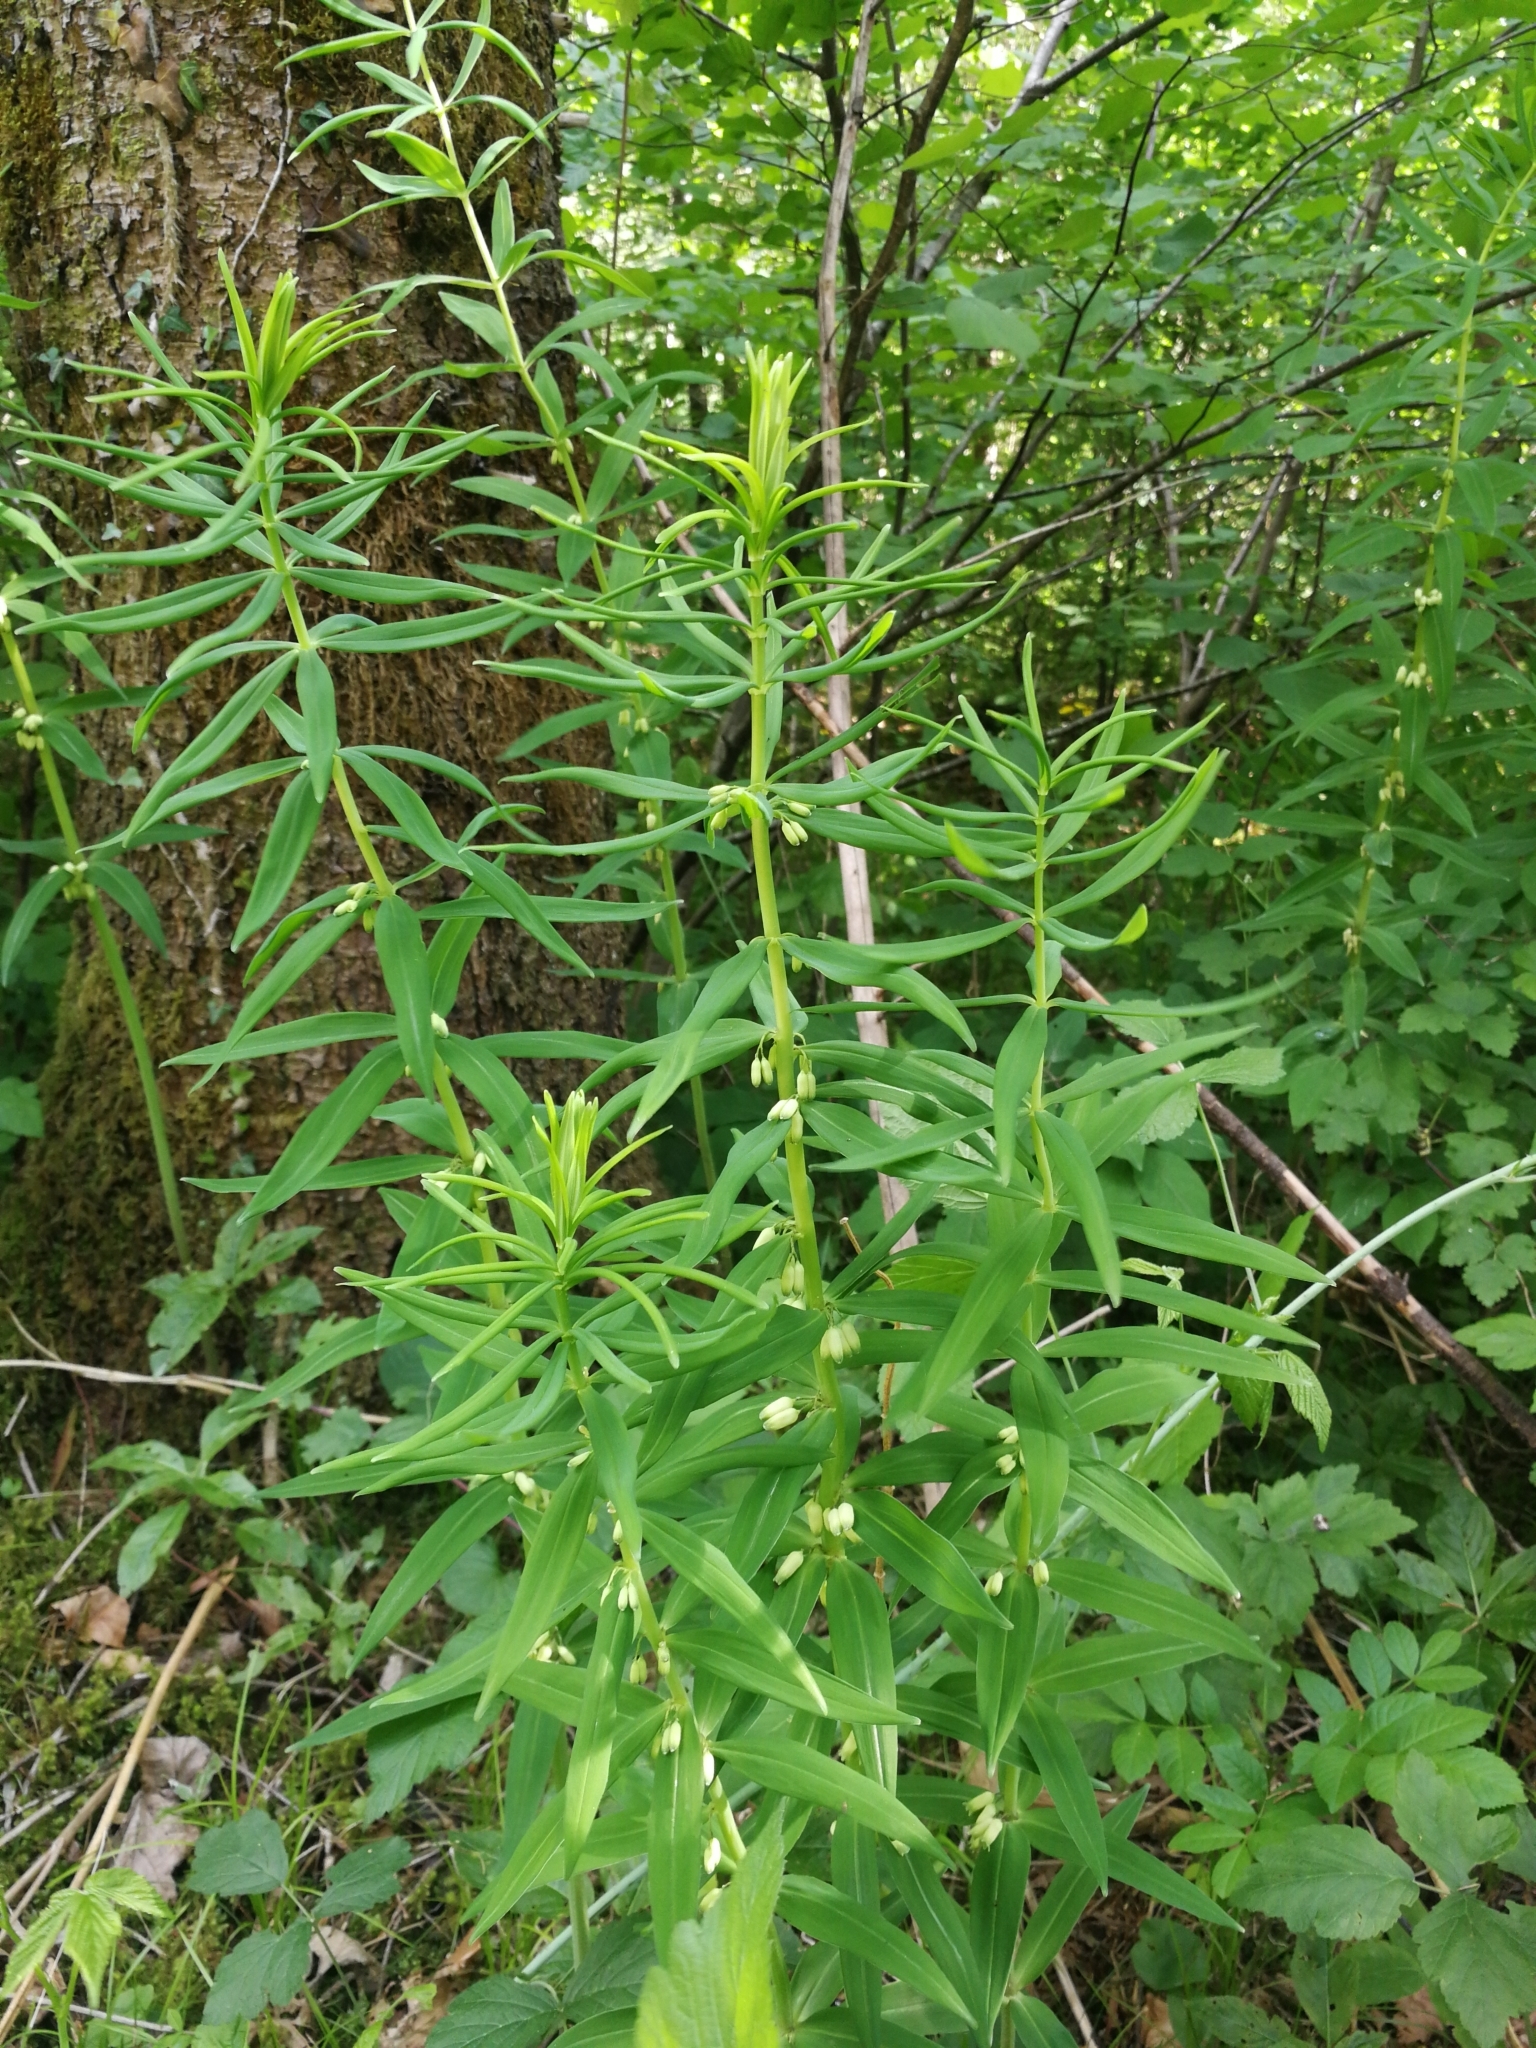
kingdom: Plantae
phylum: Tracheophyta
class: Liliopsida
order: Asparagales
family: Asparagaceae
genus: Polygonatum
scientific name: Polygonatum verticillatum
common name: Whorled solomon's-seal
